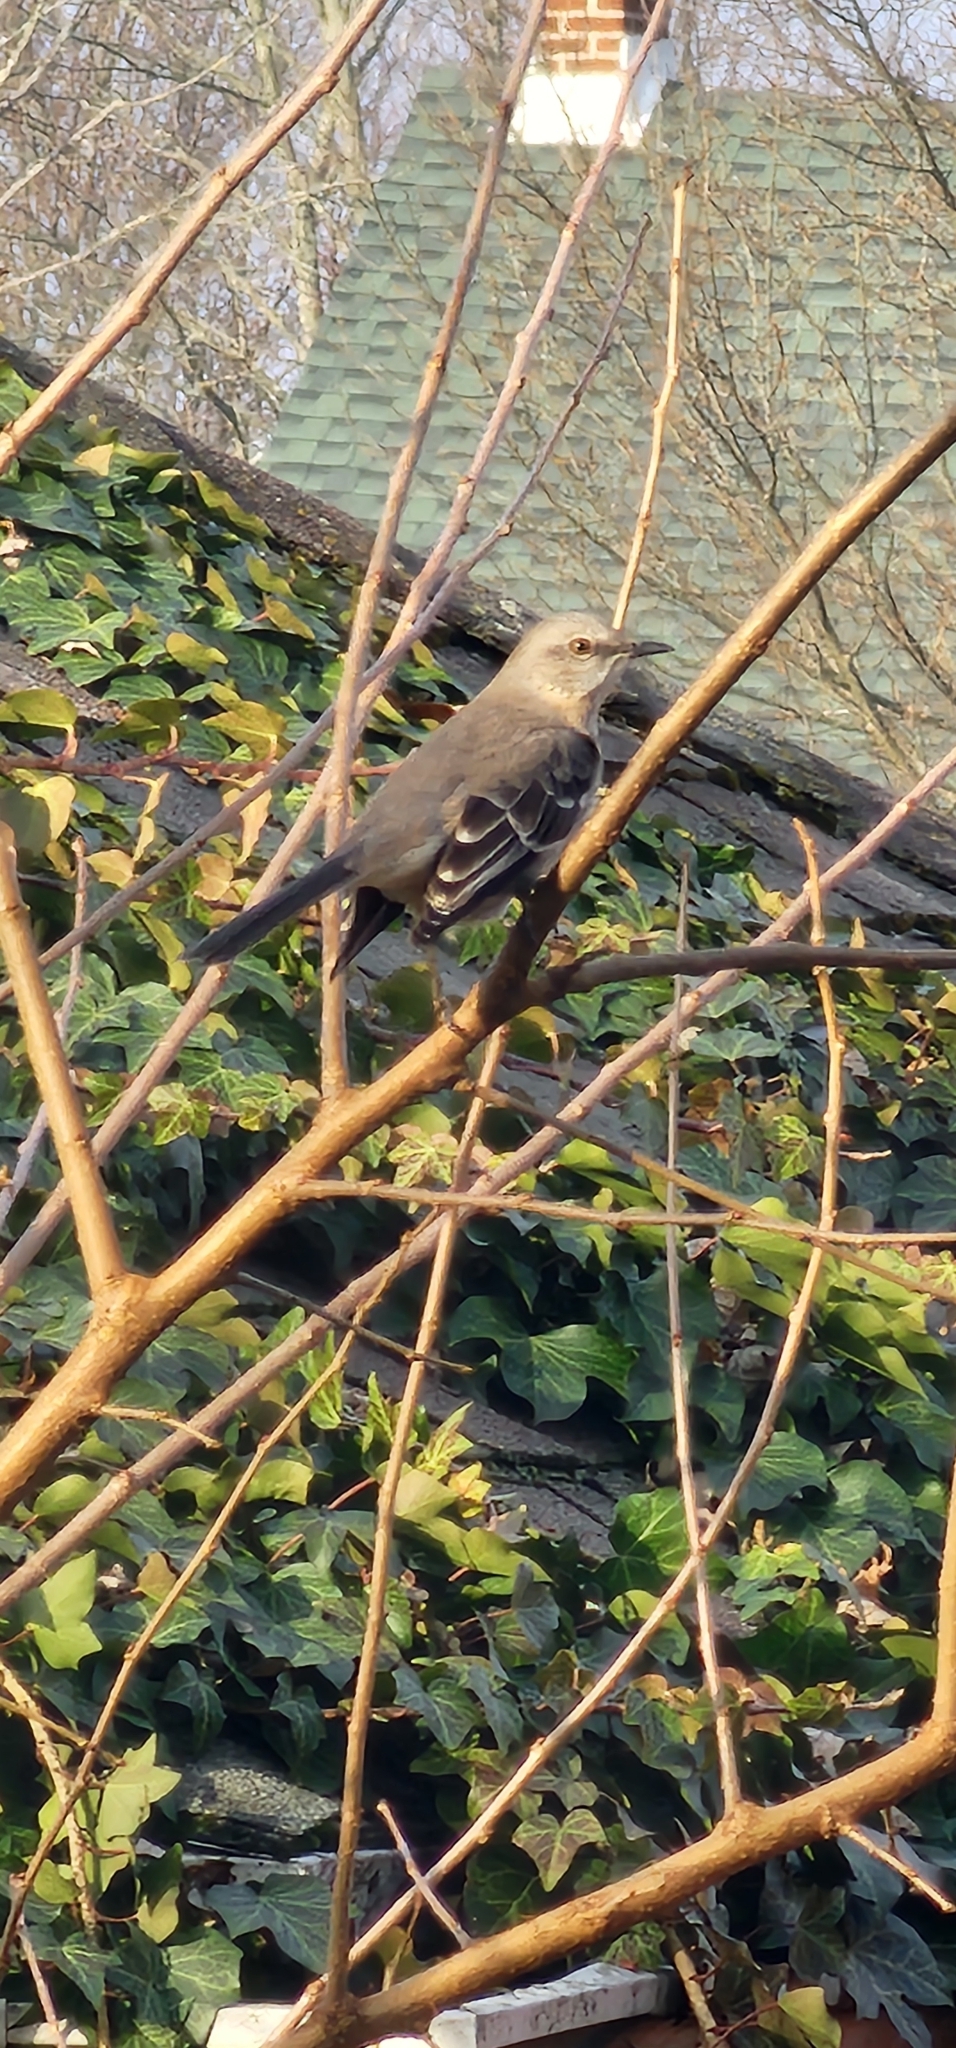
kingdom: Animalia
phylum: Chordata
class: Aves
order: Passeriformes
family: Mimidae
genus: Mimus
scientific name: Mimus polyglottos
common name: Northern mockingbird
